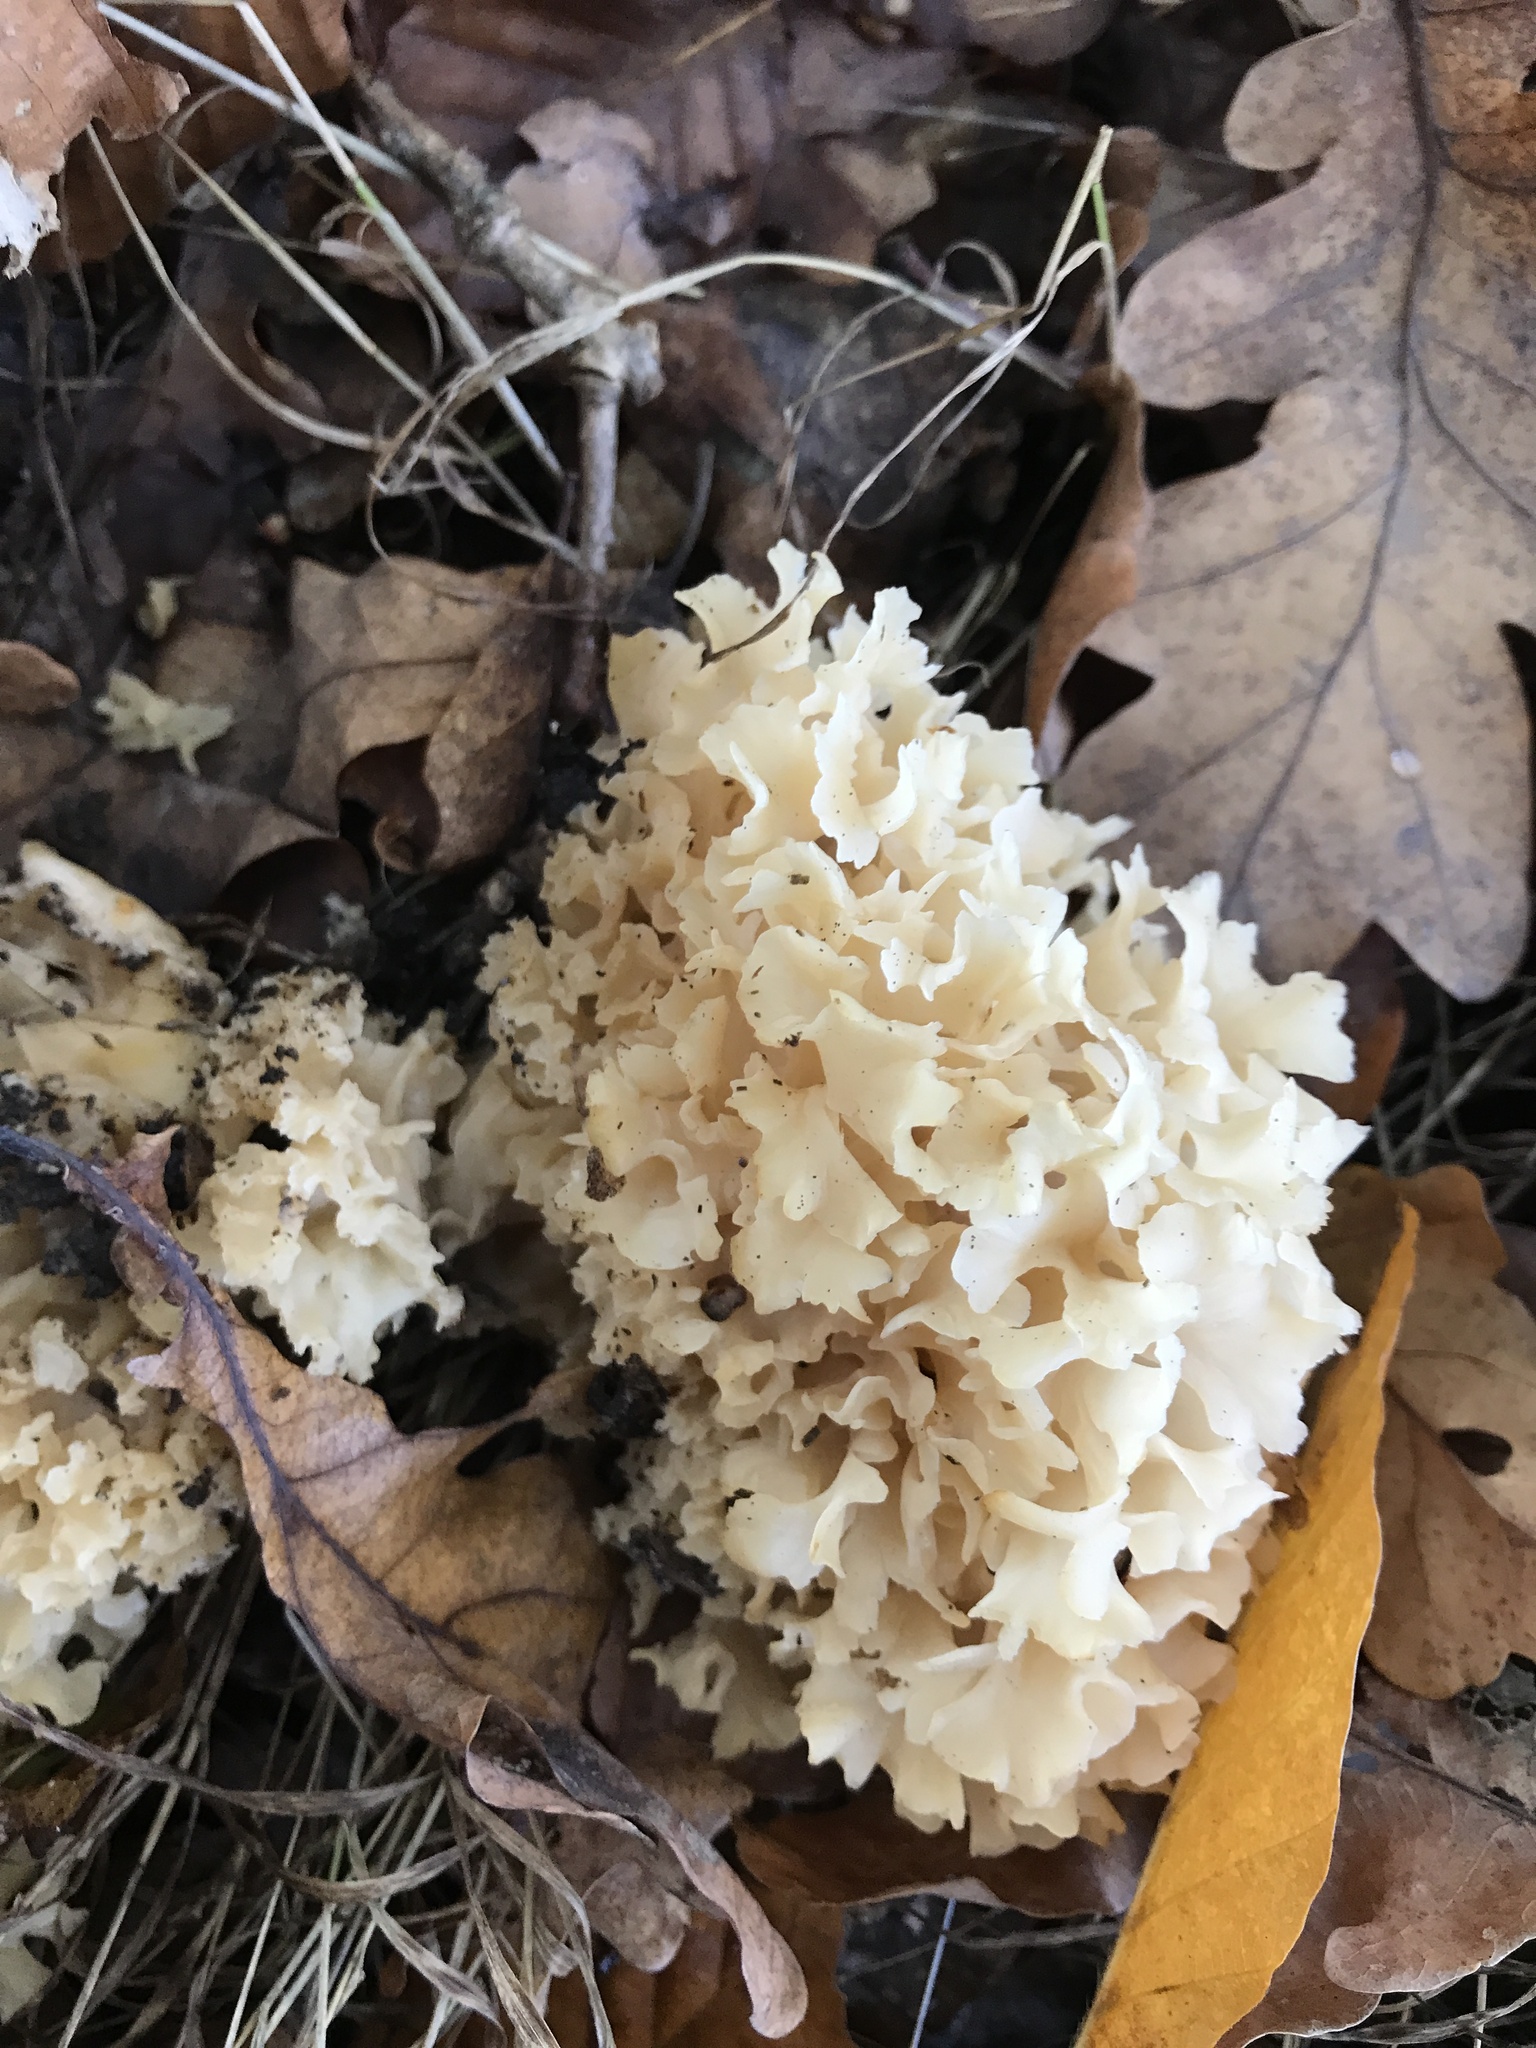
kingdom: Fungi
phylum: Basidiomycota
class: Agaricomycetes
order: Polyporales
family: Sparassidaceae
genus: Sparassis
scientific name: Sparassis crispa
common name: Brain fungus
